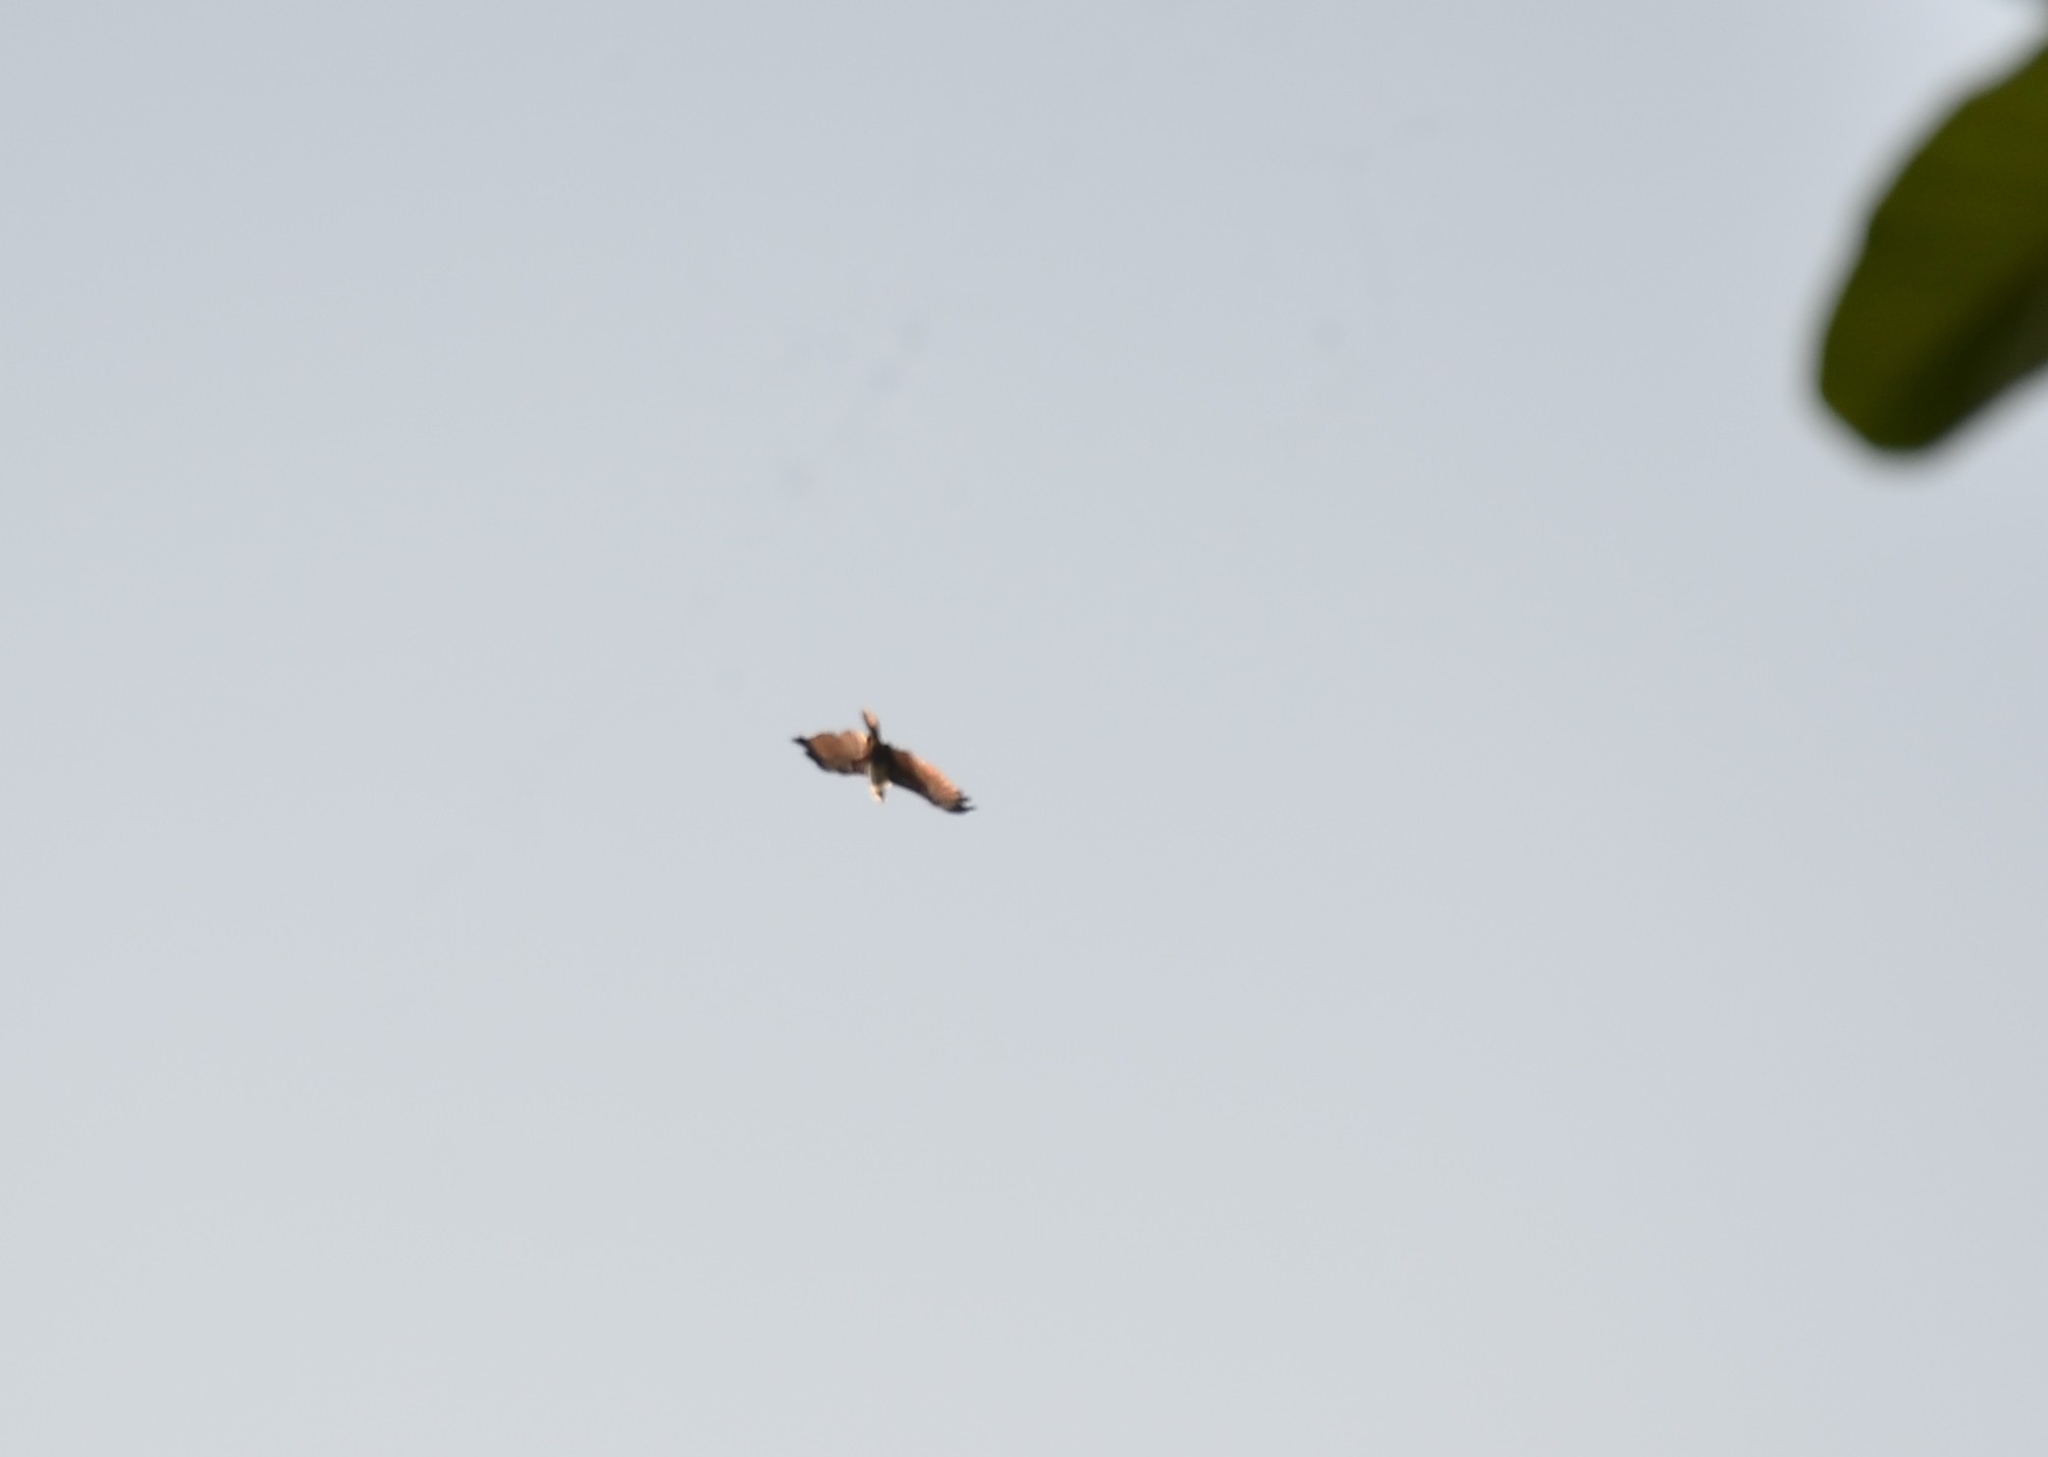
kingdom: Animalia
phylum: Chordata
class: Aves
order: Accipitriformes
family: Accipitridae
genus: Haliastur
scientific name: Haliastur indus
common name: Brahminy kite
